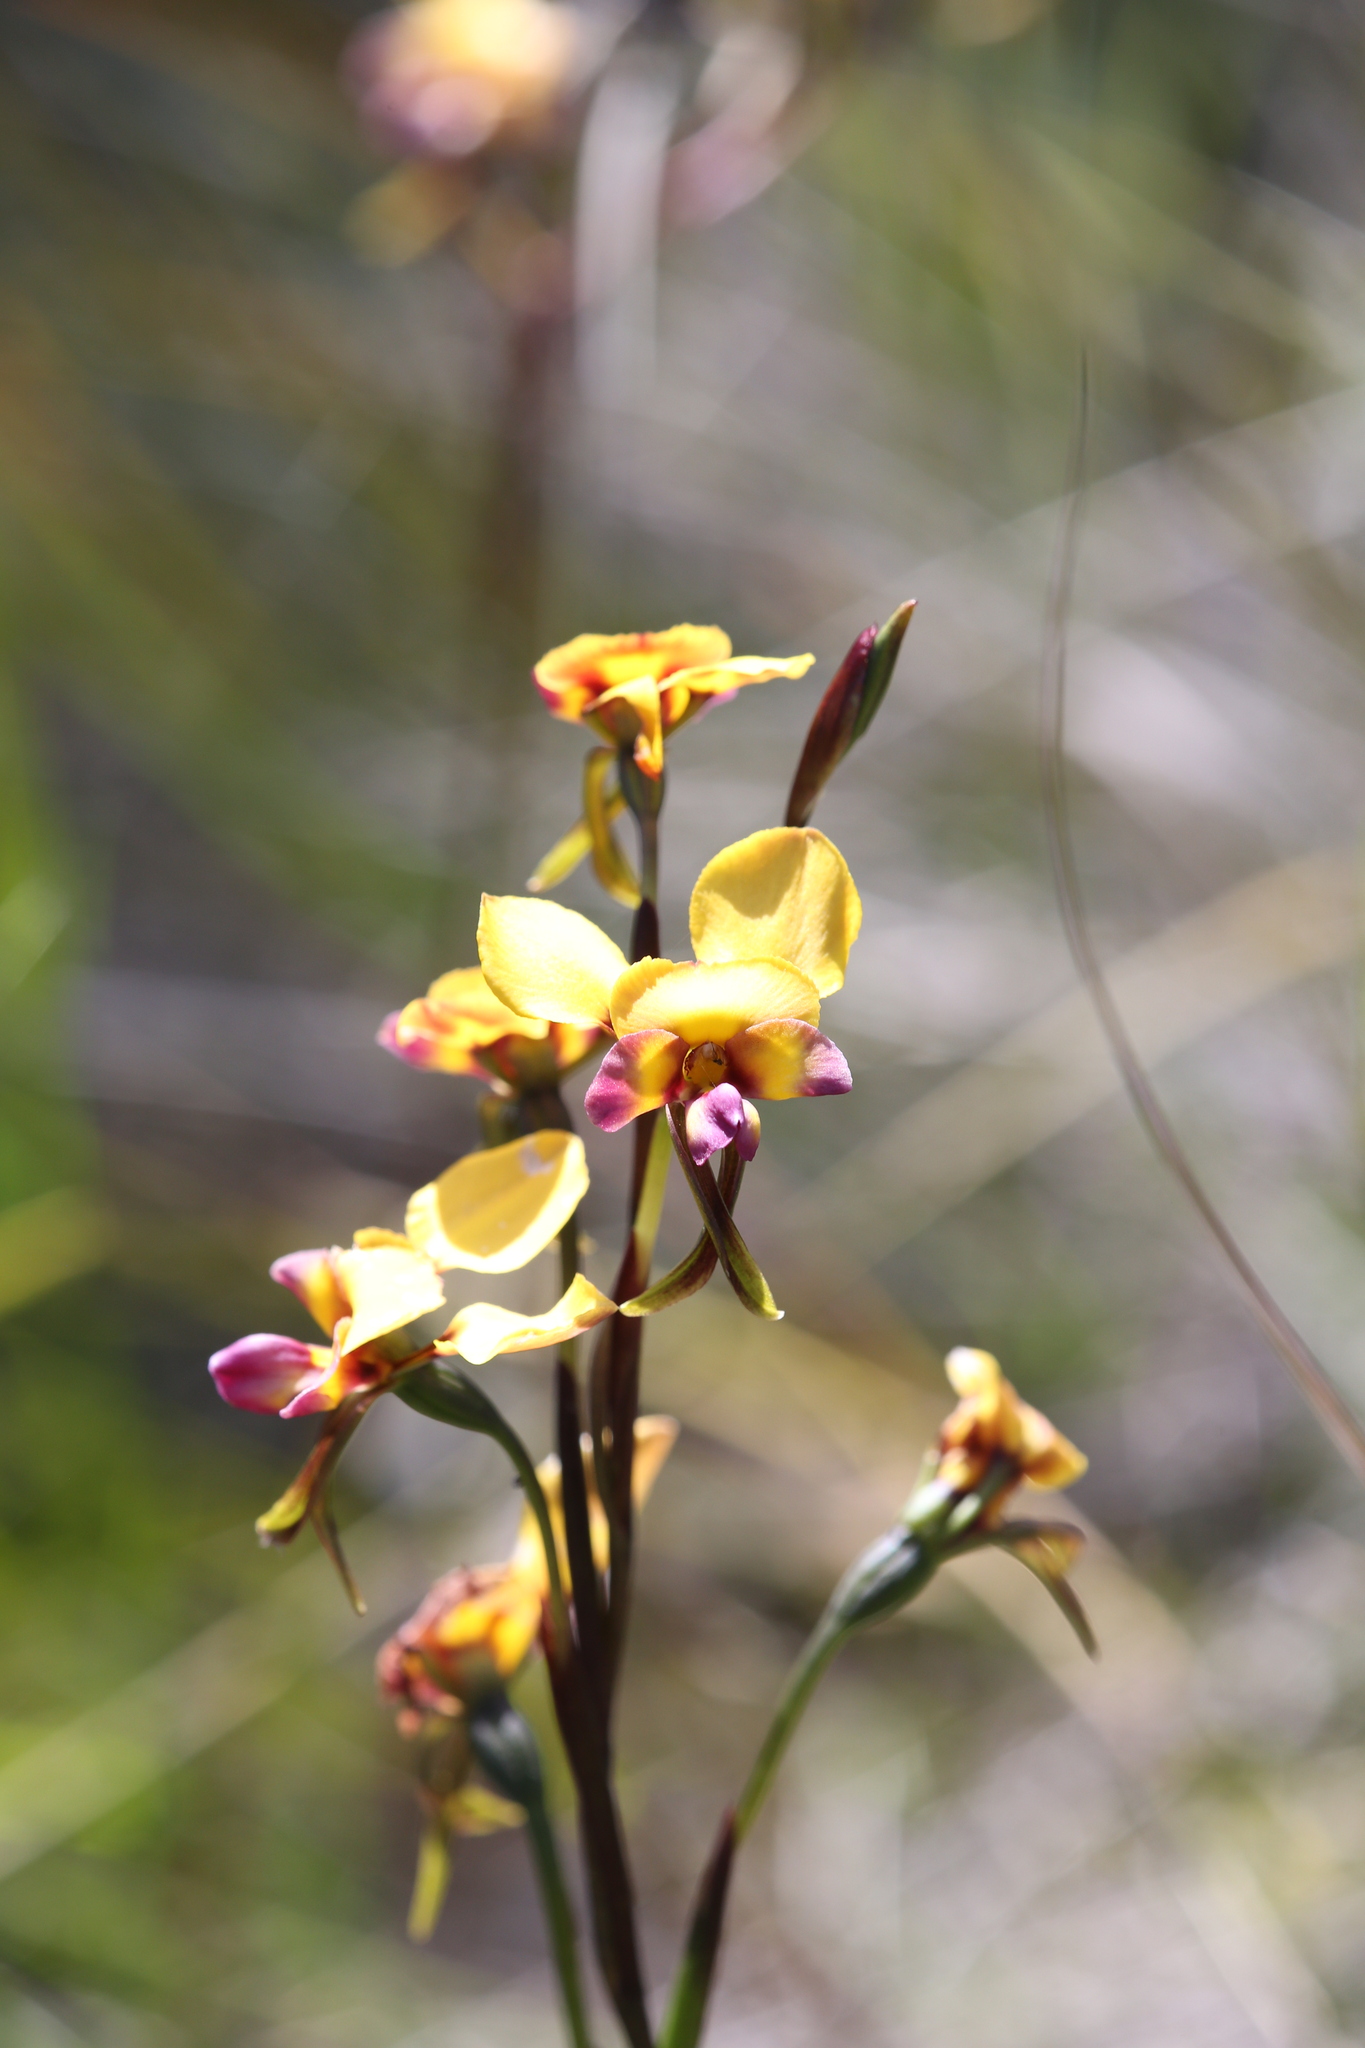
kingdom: Plantae
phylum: Tracheophyta
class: Liliopsida
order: Asparagales
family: Orchidaceae
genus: Diuris
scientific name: Diuris magnifica
